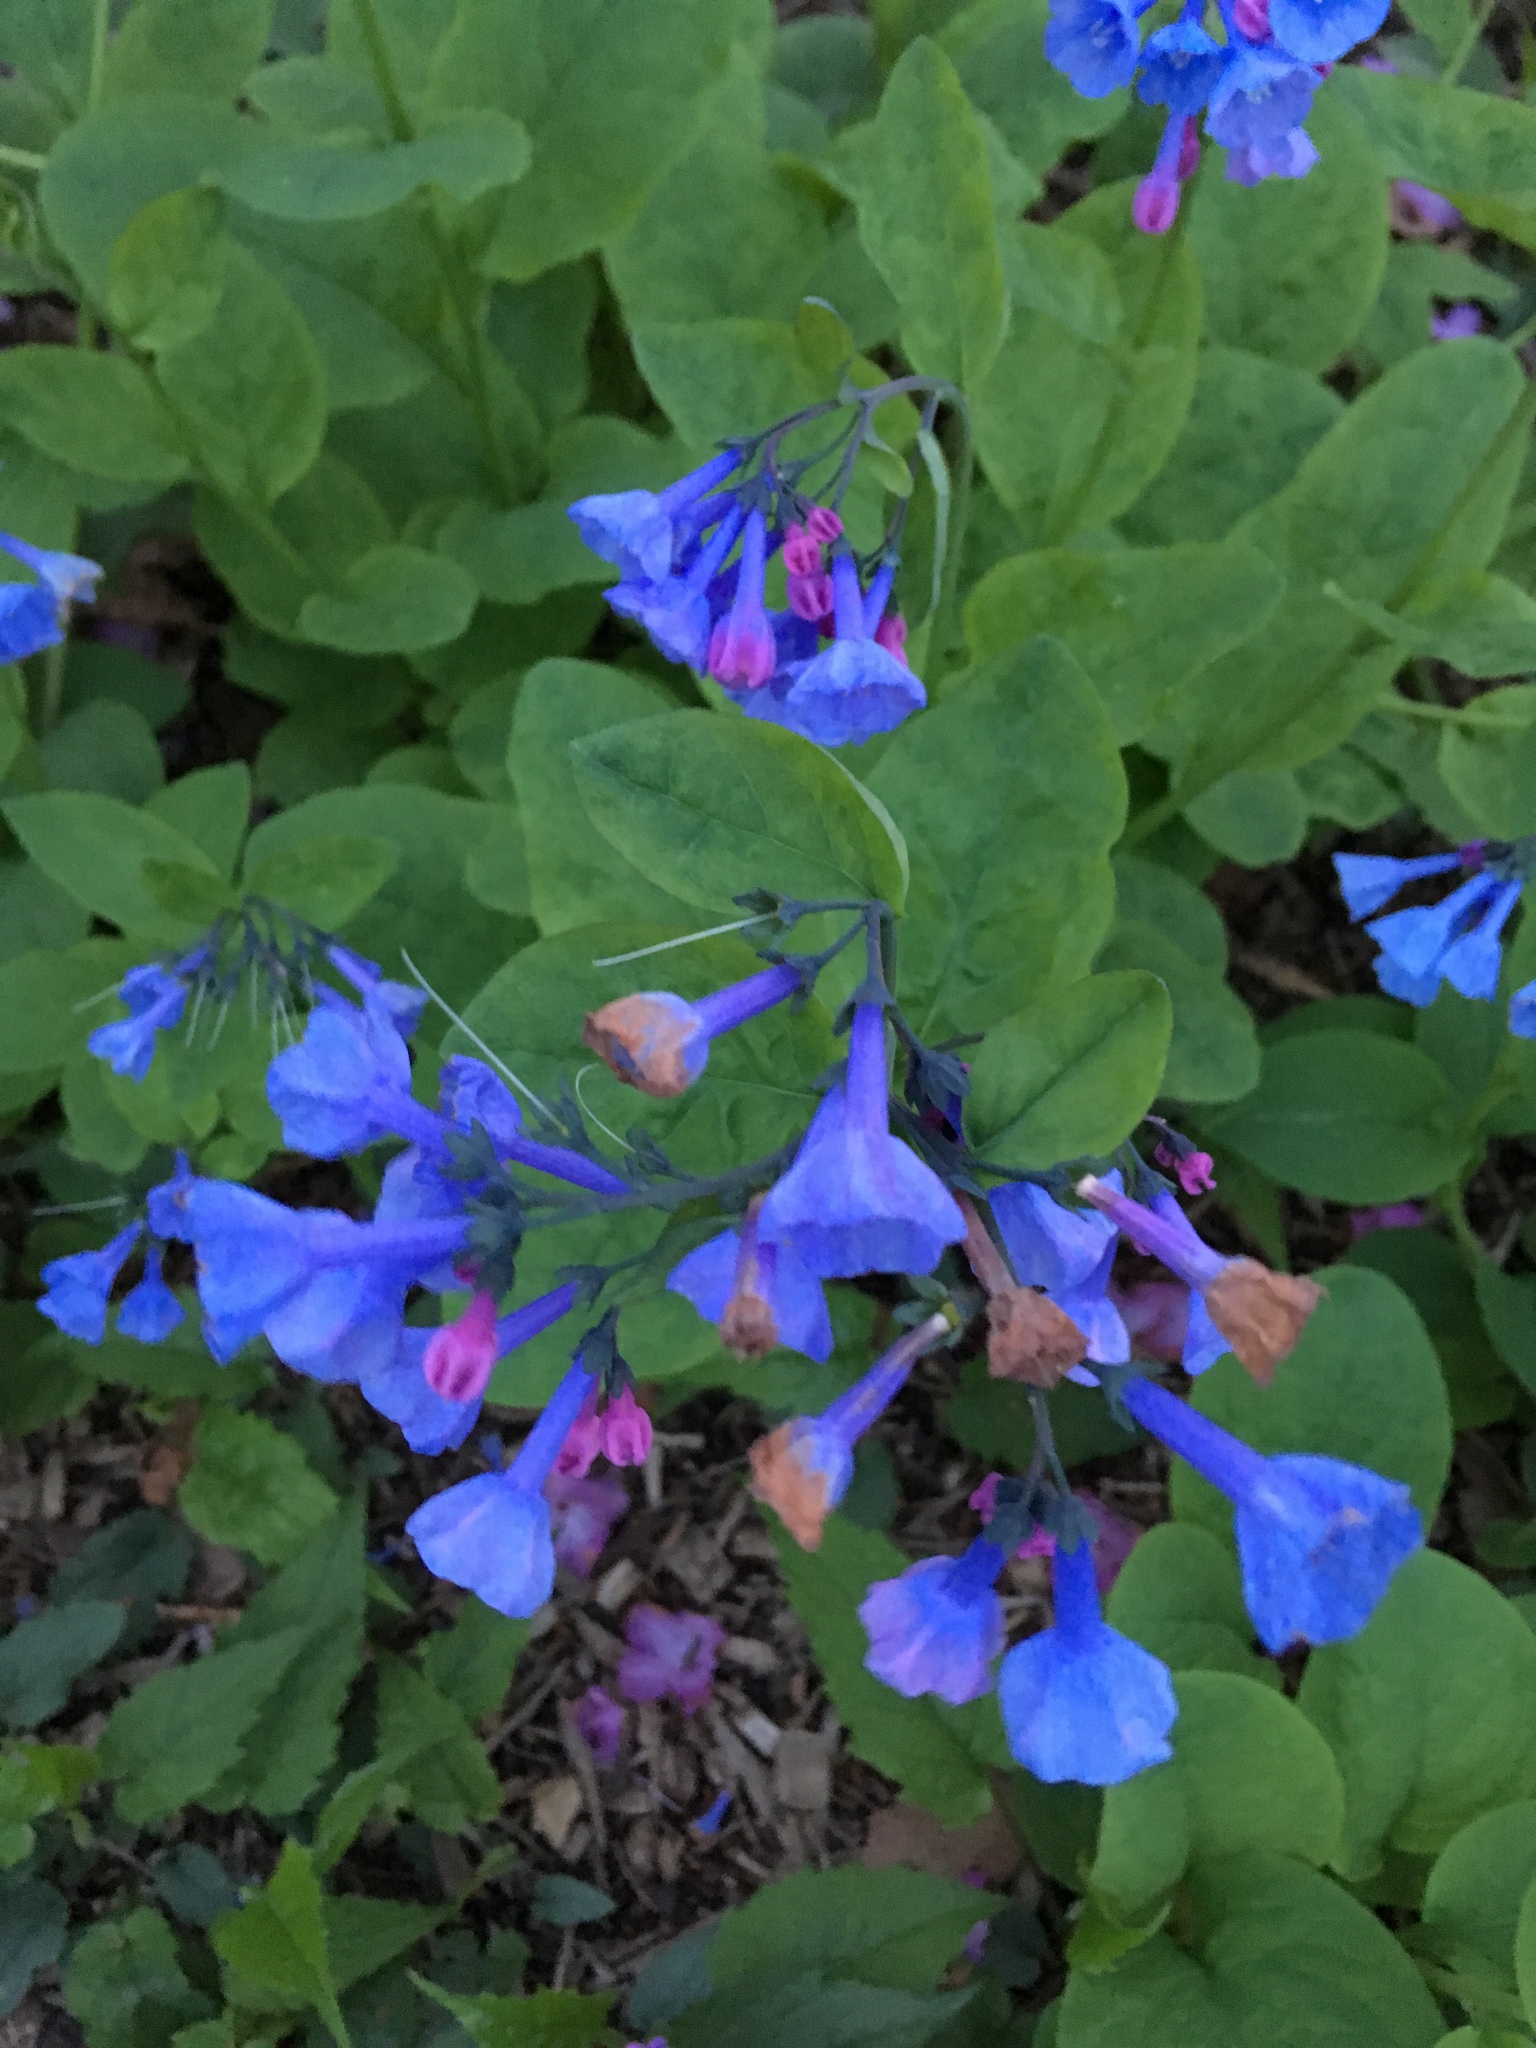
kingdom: Plantae
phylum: Tracheophyta
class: Magnoliopsida
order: Boraginales
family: Boraginaceae
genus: Mertensia
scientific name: Mertensia virginica
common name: Virginia bluebells
